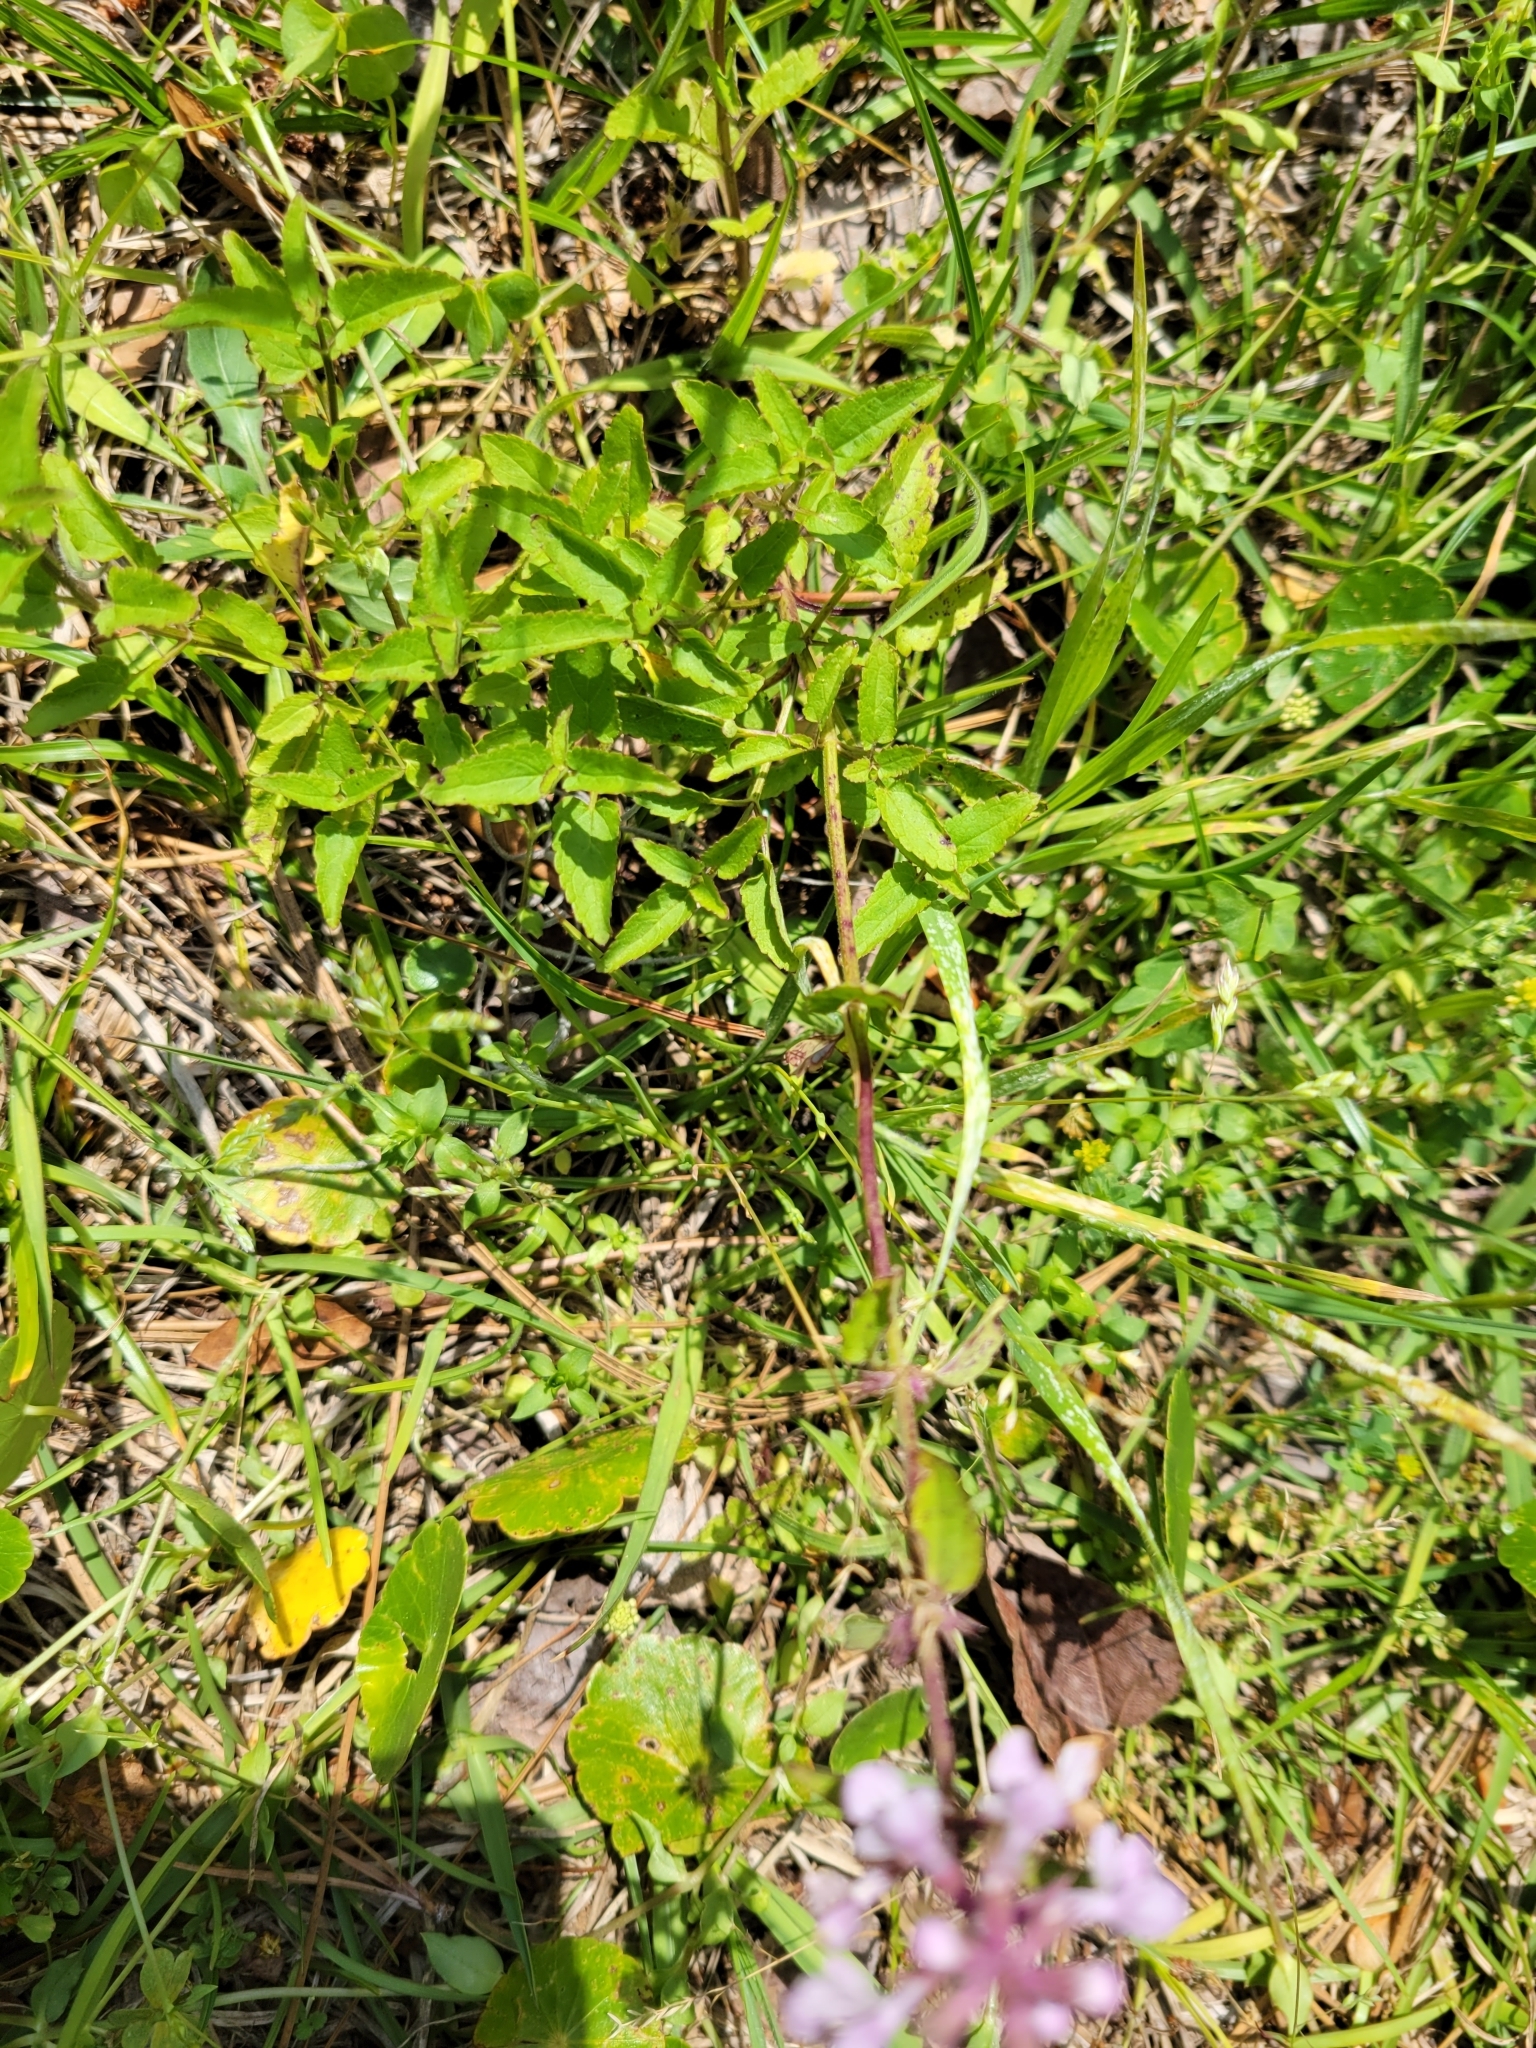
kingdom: Plantae
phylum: Tracheophyta
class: Magnoliopsida
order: Lamiales
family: Lamiaceae
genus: Stachys
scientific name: Stachys floridana
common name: Florida betony
